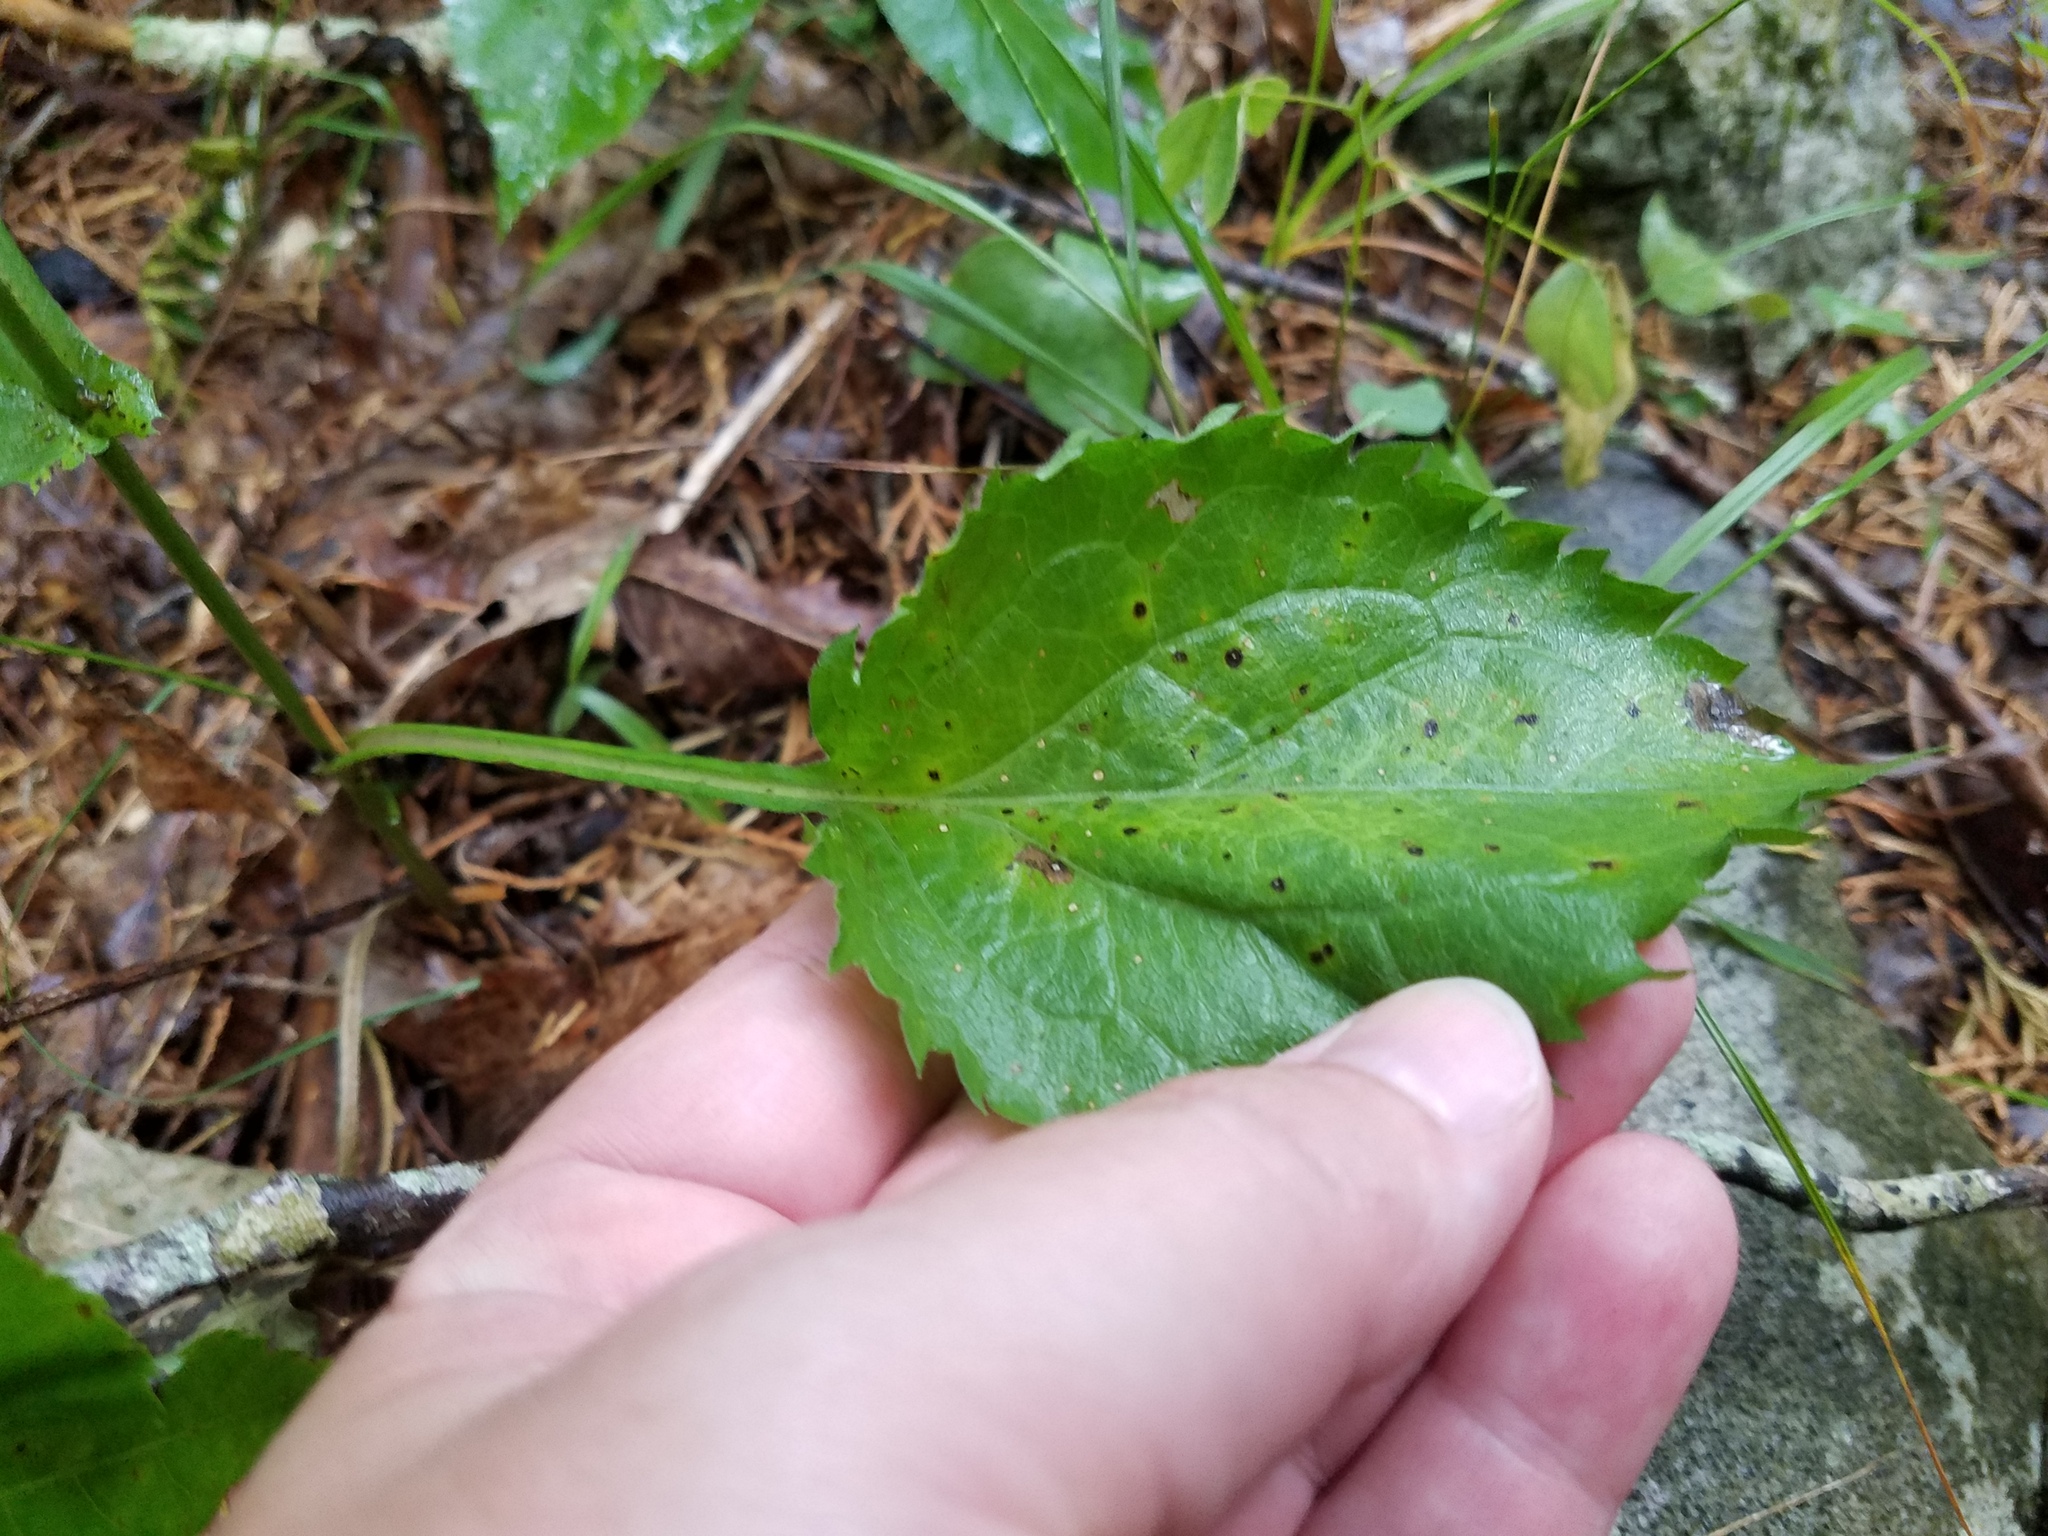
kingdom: Plantae
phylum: Tracheophyta
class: Magnoliopsida
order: Asterales
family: Asteraceae
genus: Solidago
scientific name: Solidago auriculata
